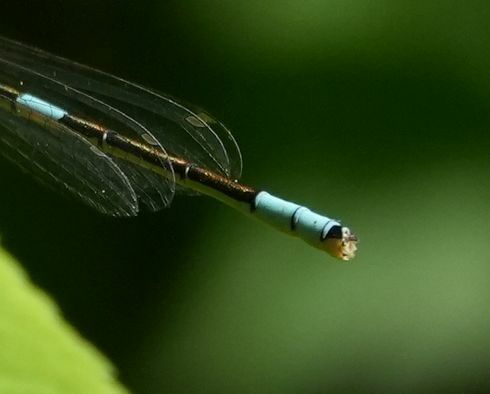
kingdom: Animalia
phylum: Arthropoda
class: Insecta
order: Odonata
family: Coenagrionidae
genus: Coenagrion
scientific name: Coenagrion resolutum
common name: Taiga bluet
